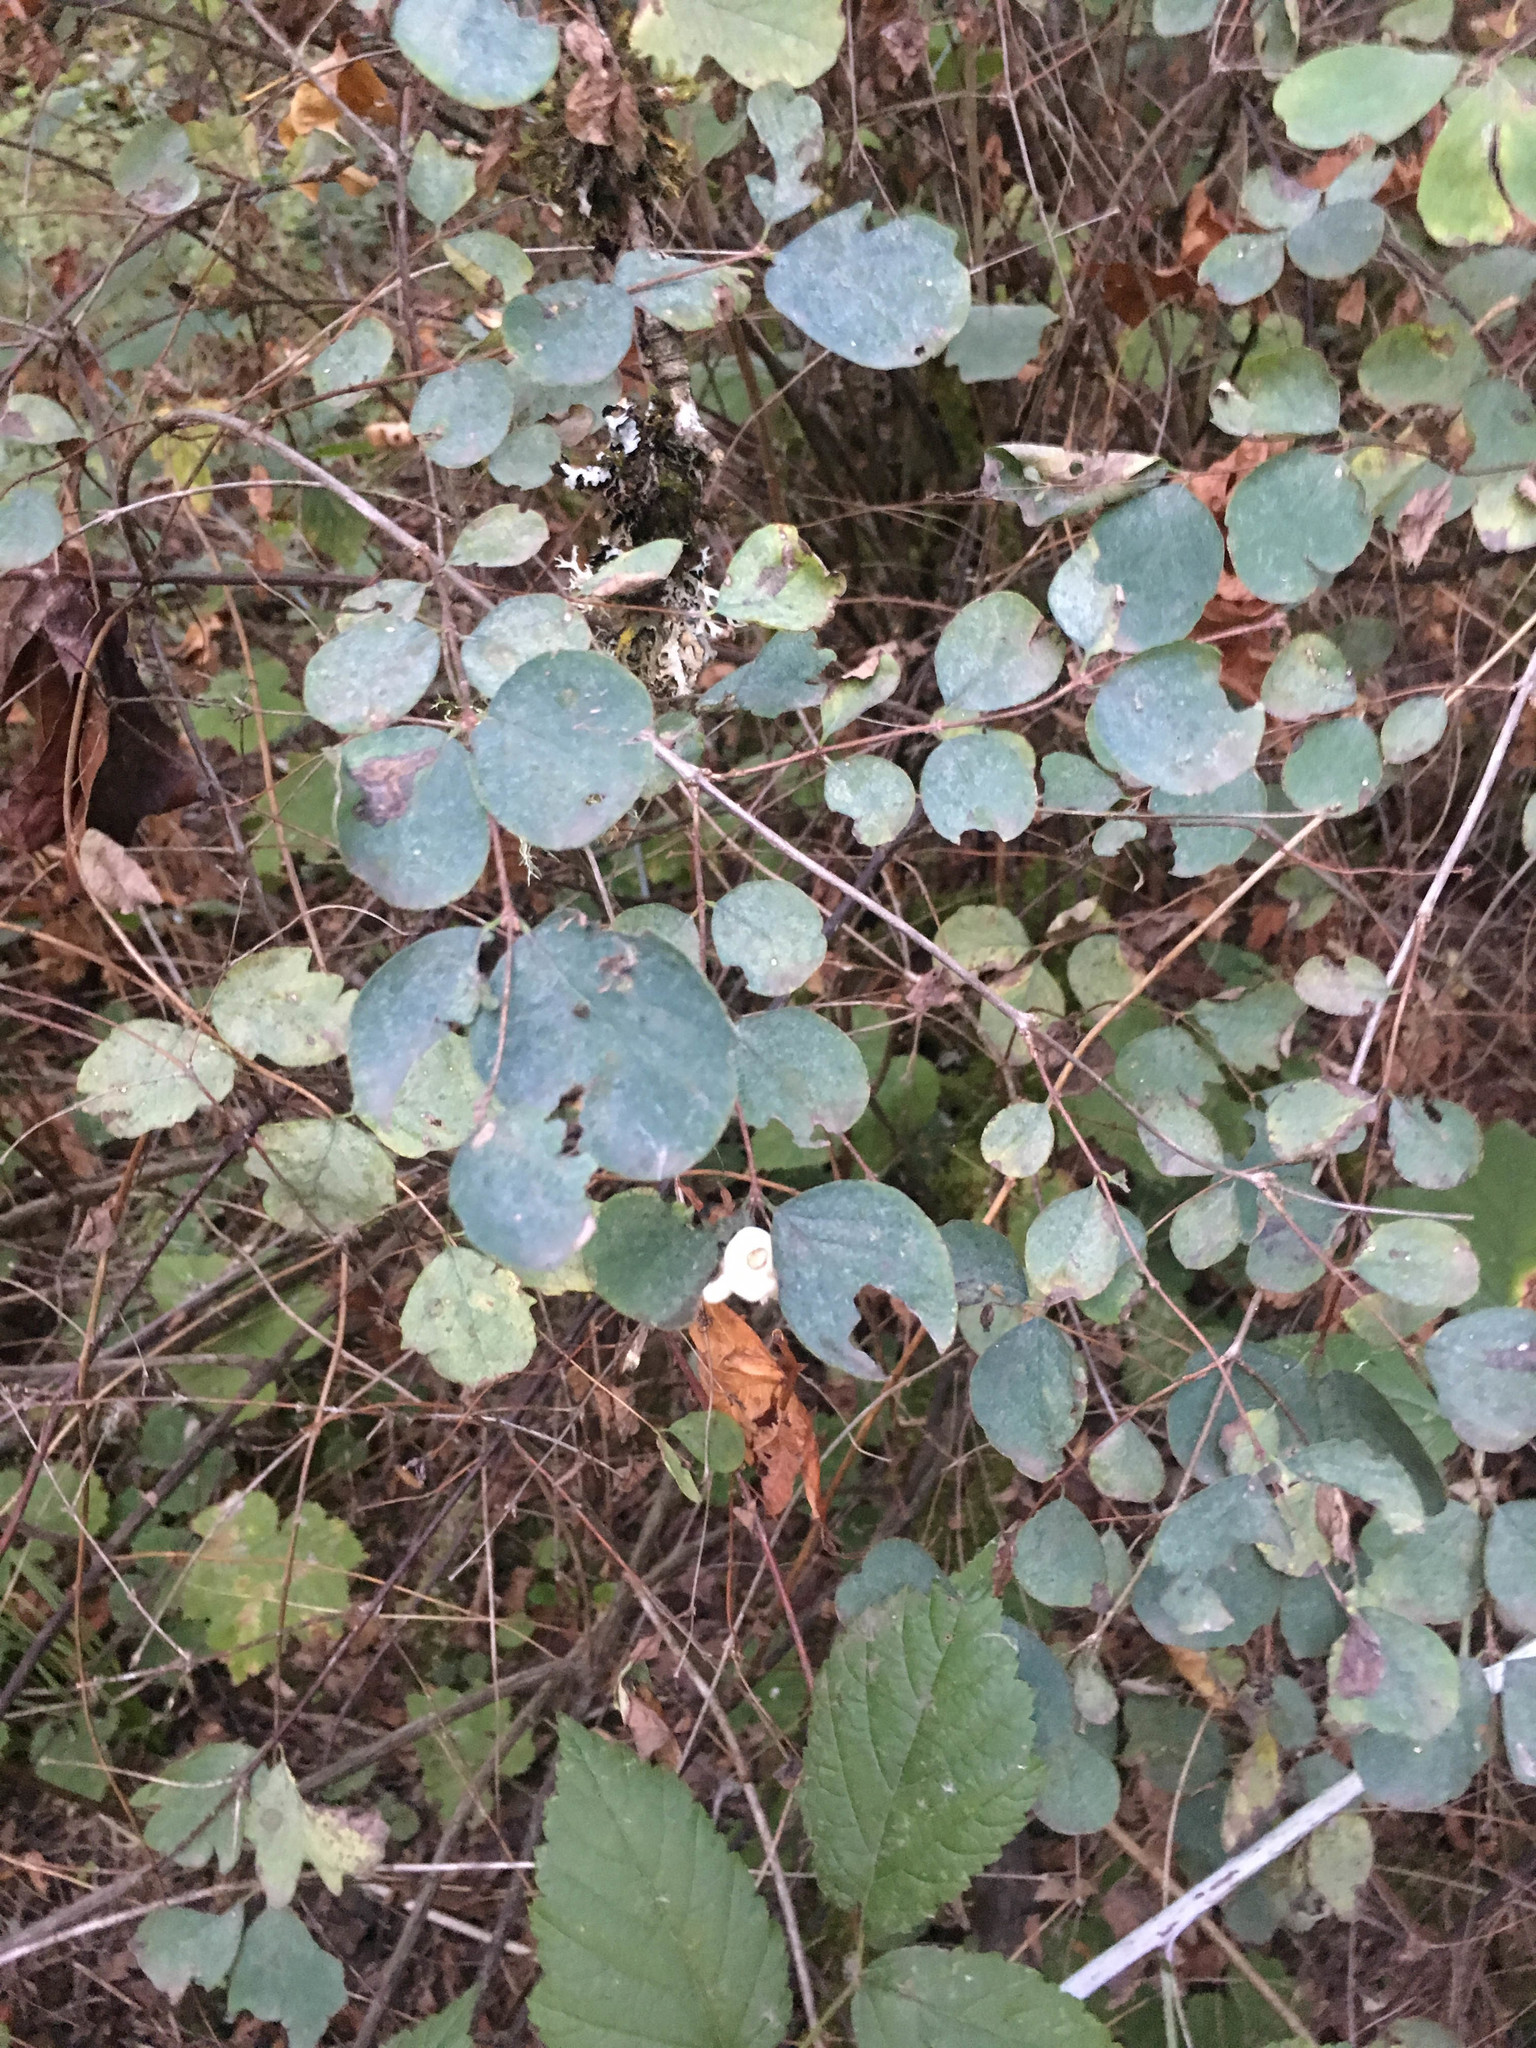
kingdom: Plantae
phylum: Tracheophyta
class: Magnoliopsida
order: Dipsacales
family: Caprifoliaceae
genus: Symphoricarpos
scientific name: Symphoricarpos albus
